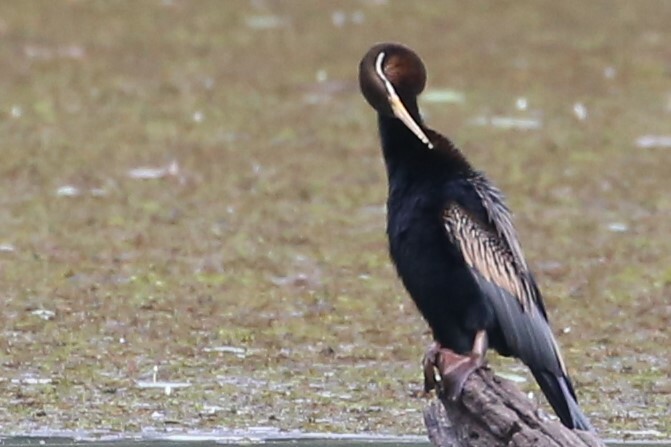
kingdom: Animalia
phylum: Chordata
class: Aves
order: Suliformes
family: Anhingidae
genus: Anhinga
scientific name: Anhinga novaehollandiae
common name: Australasian darter
